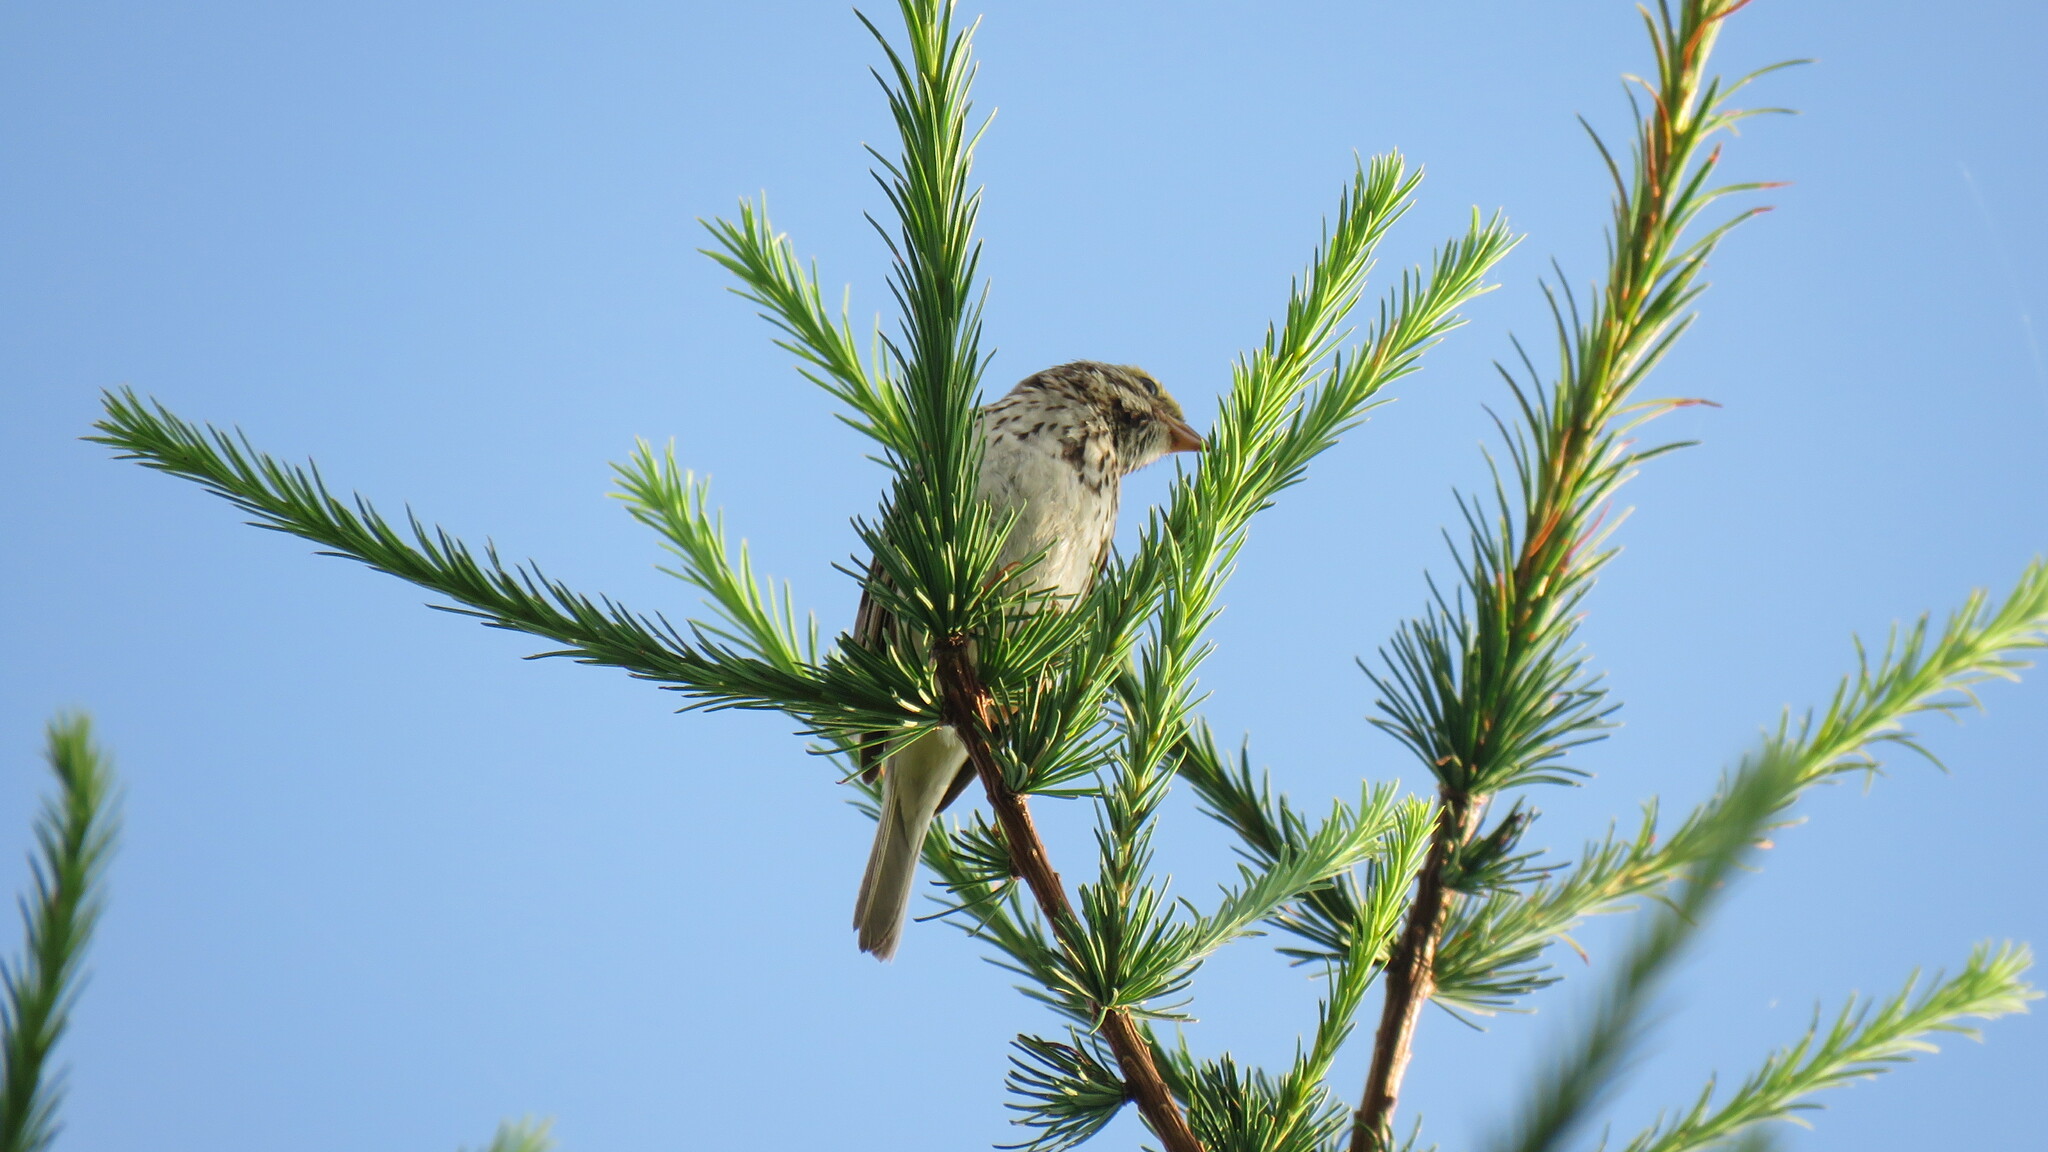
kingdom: Animalia
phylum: Chordata
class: Aves
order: Passeriformes
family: Passerellidae
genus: Passerculus
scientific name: Passerculus sandwichensis
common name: Savannah sparrow
